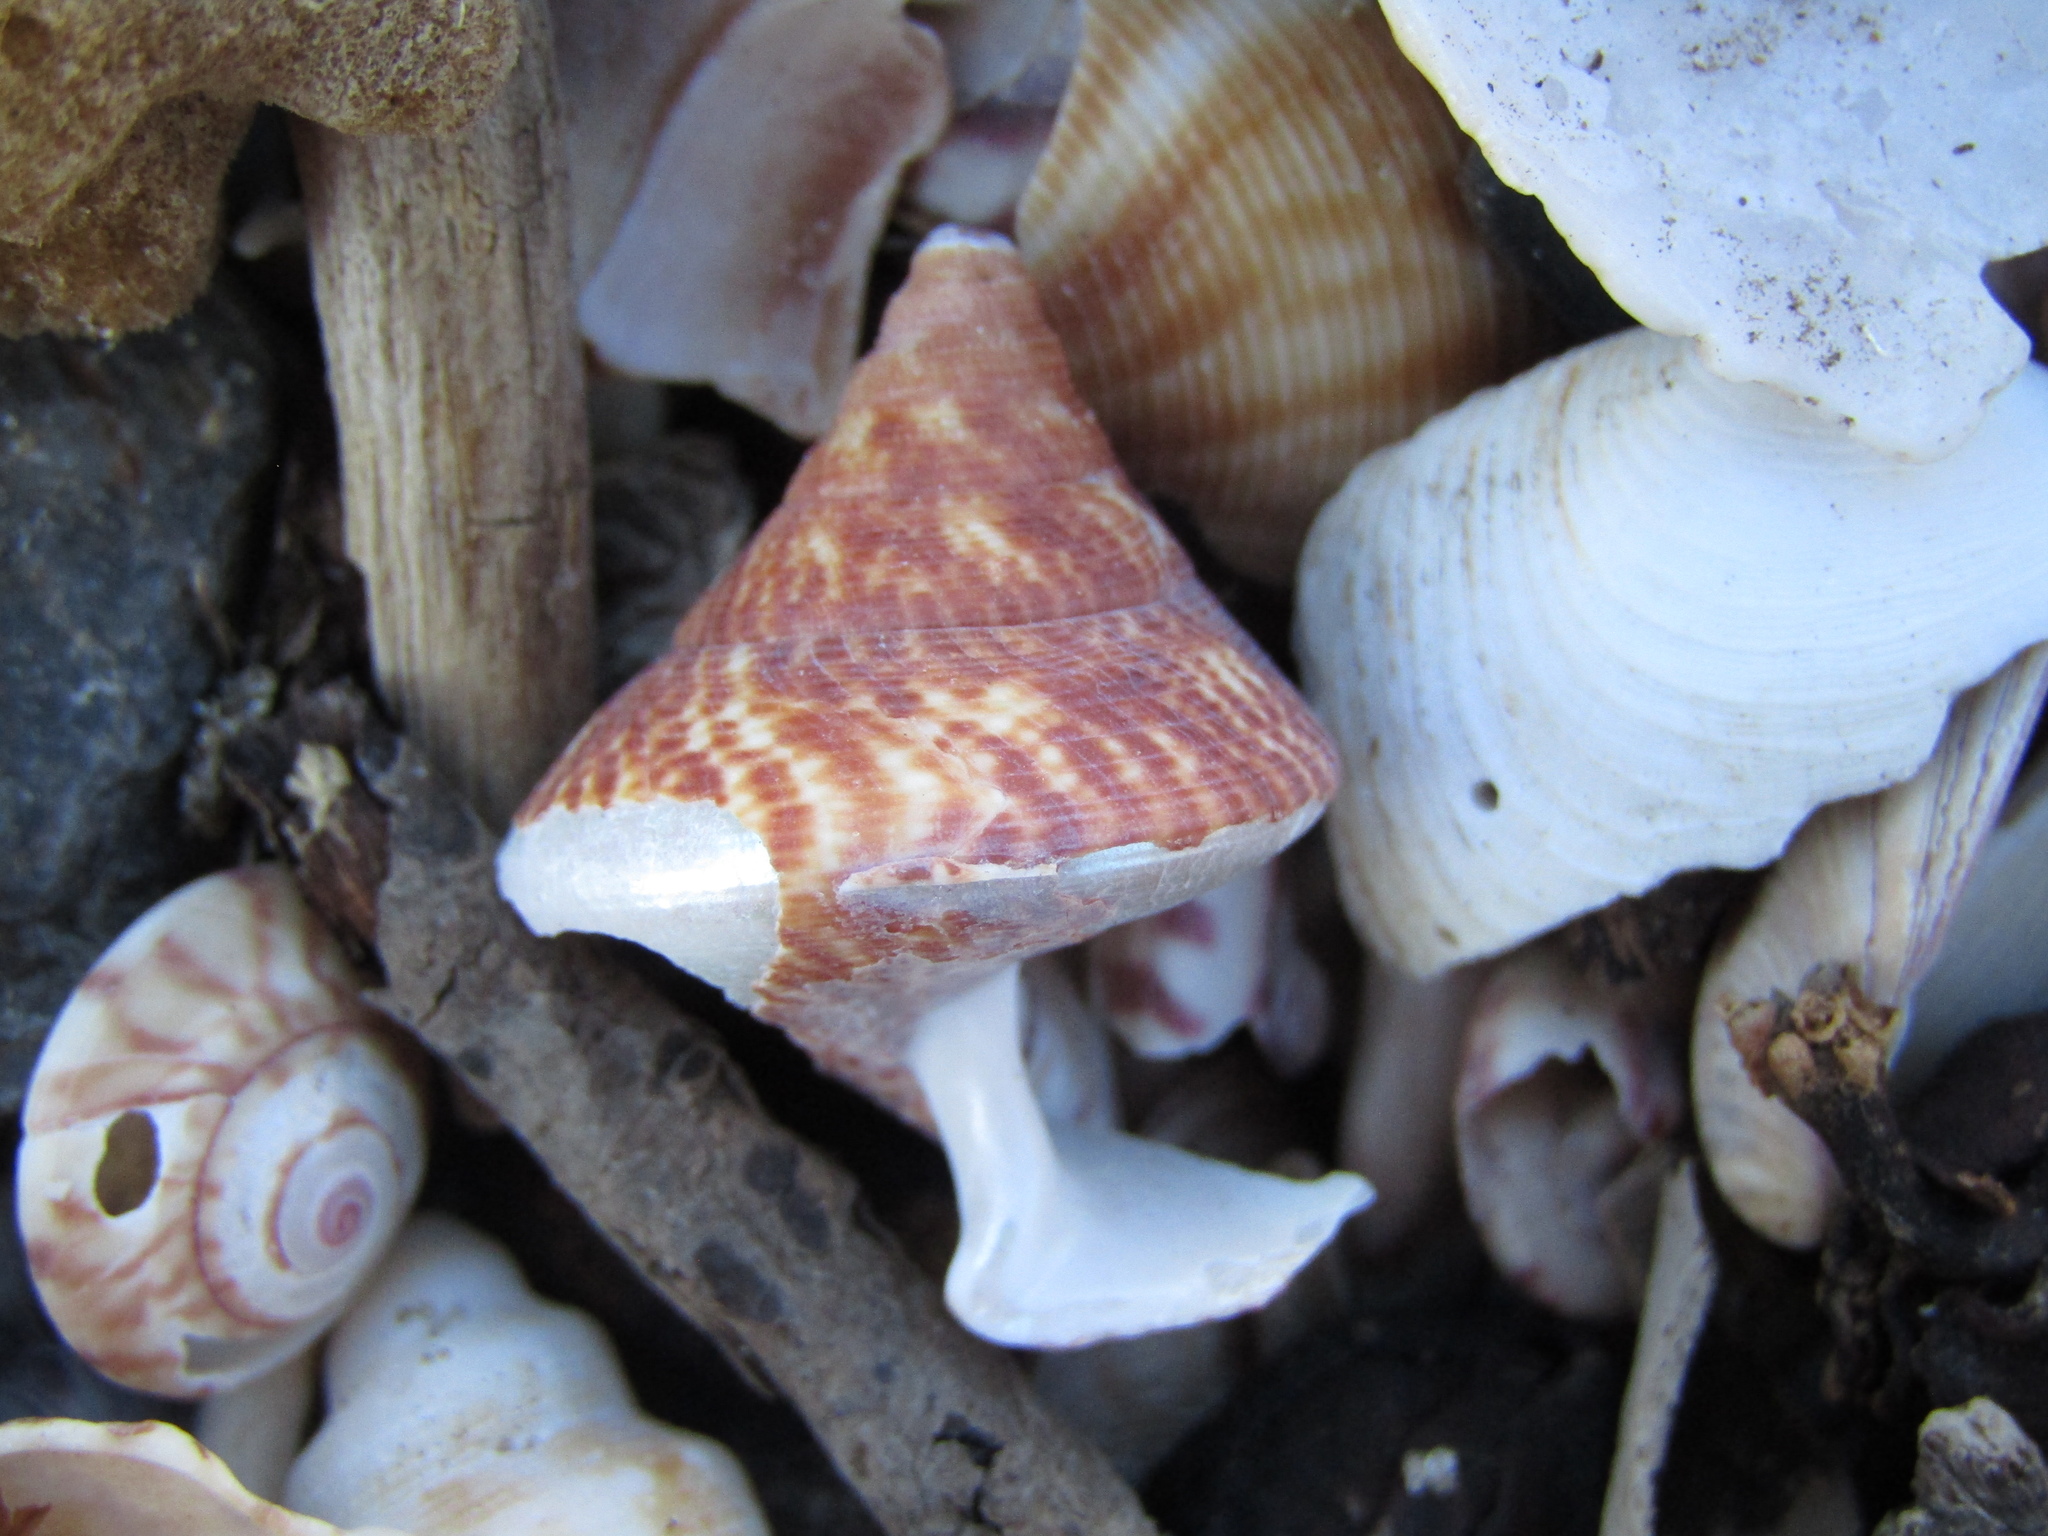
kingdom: Animalia
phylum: Mollusca
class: Gastropoda
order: Trochida
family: Calliostomatidae
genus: Maurea
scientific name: Maurea tigris
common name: Tiger maurea
